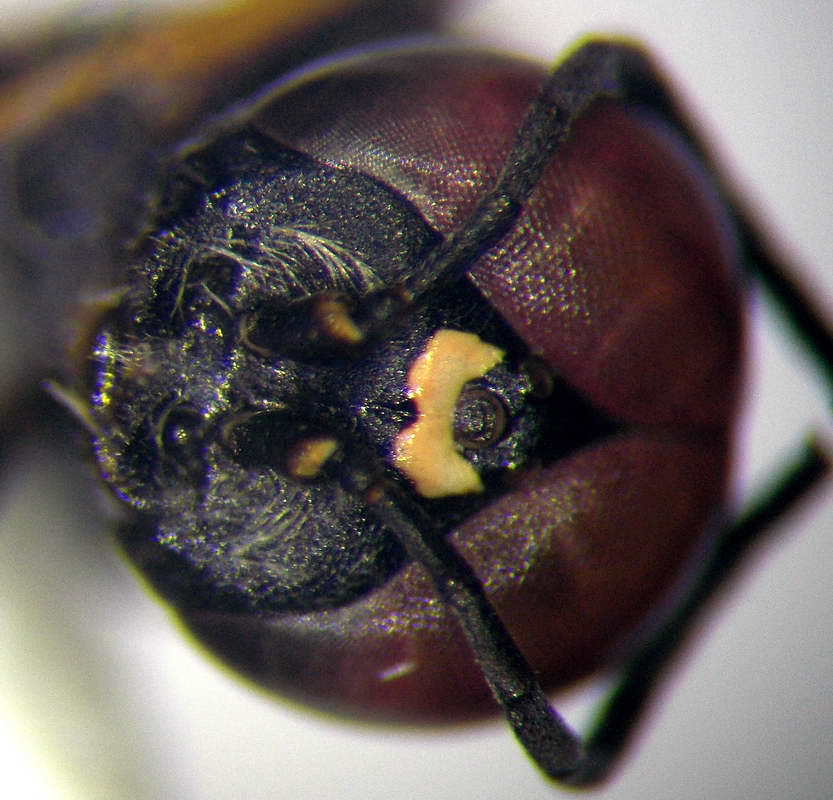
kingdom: Animalia
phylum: Arthropoda
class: Insecta
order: Hymenoptera
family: Crabronidae
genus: Dryudella
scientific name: Dryudella lineata
